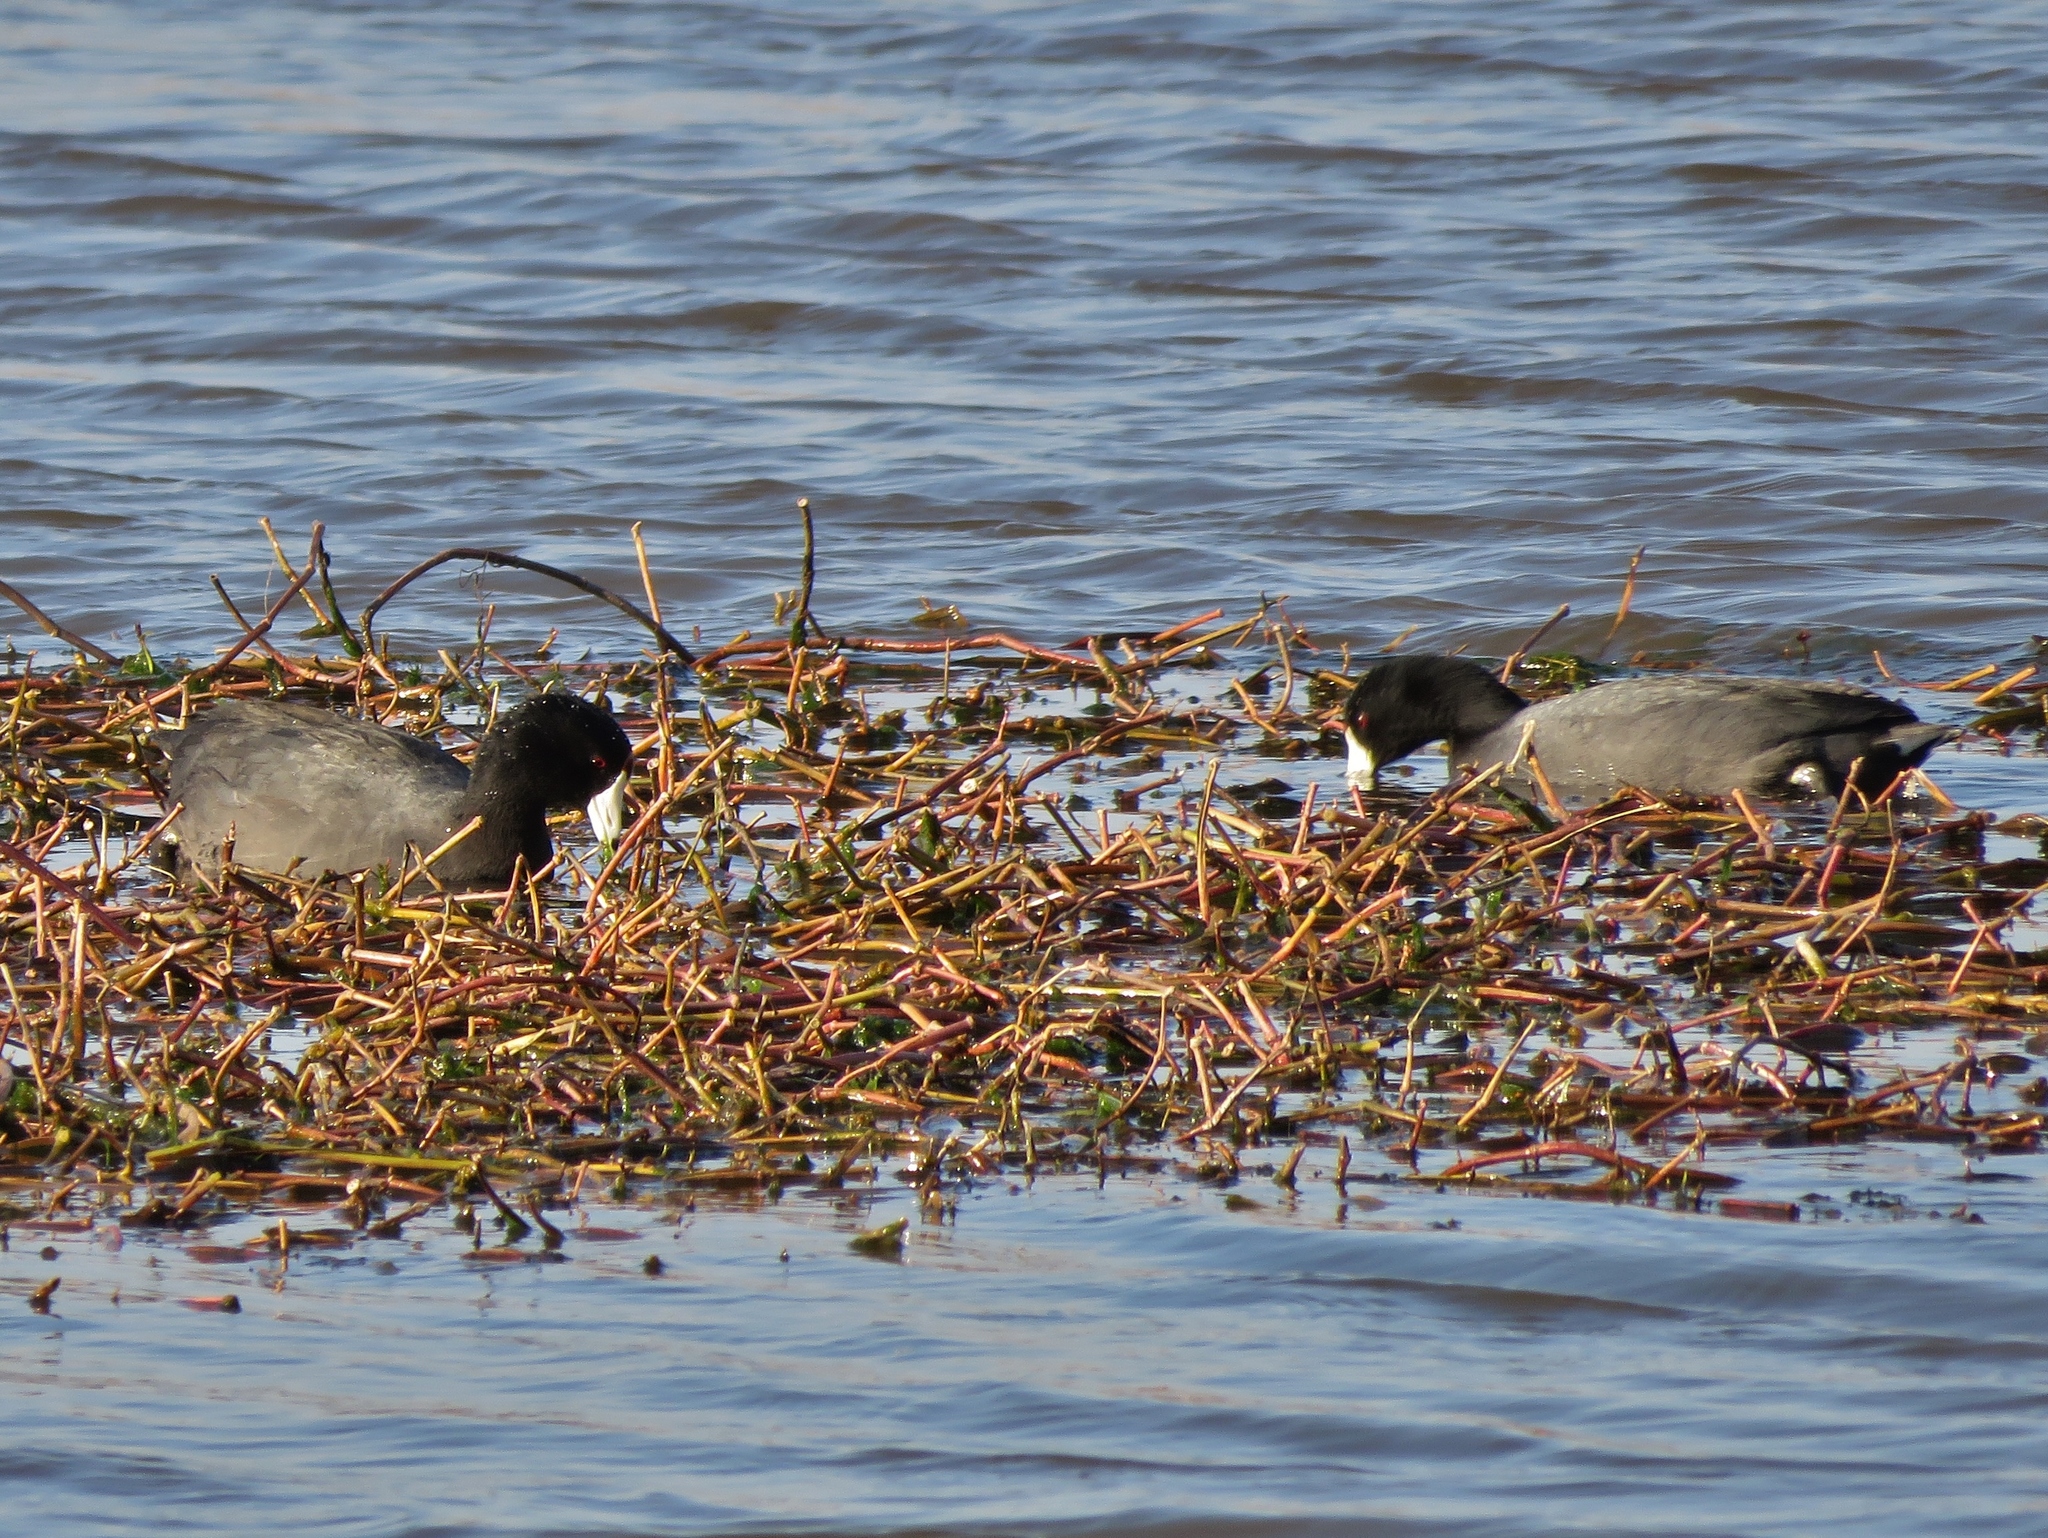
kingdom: Animalia
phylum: Chordata
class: Aves
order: Gruiformes
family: Rallidae
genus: Fulica
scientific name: Fulica americana
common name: American coot
